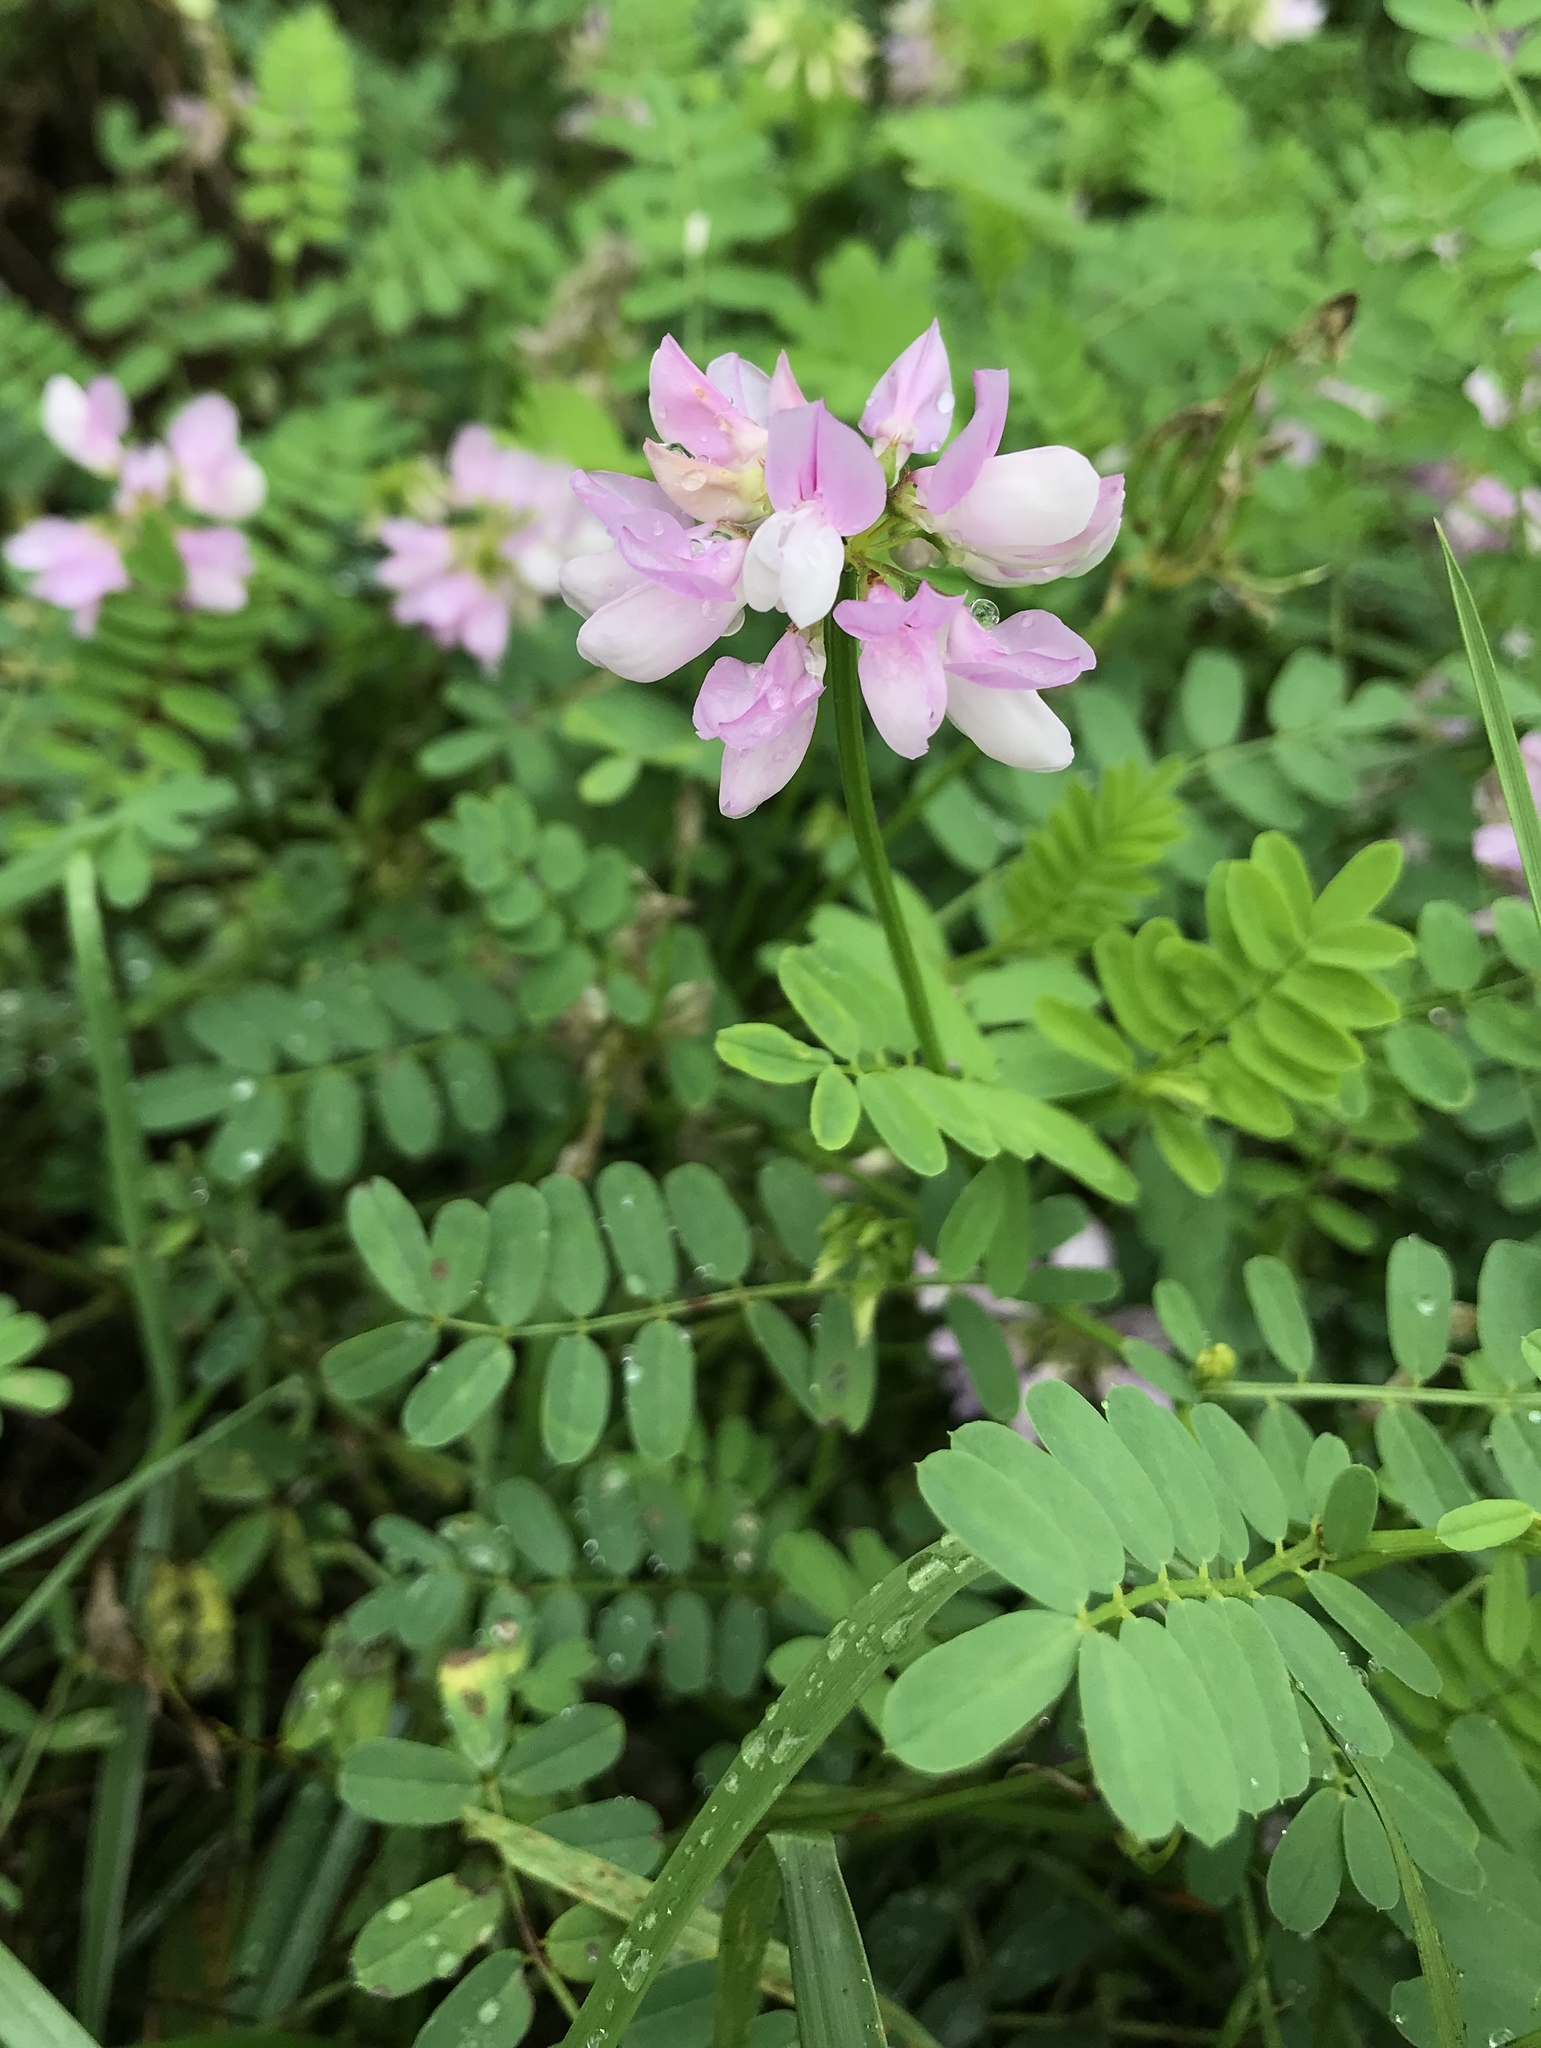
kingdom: Plantae
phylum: Tracheophyta
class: Magnoliopsida
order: Fabales
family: Fabaceae
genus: Coronilla
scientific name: Coronilla varia
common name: Crownvetch
